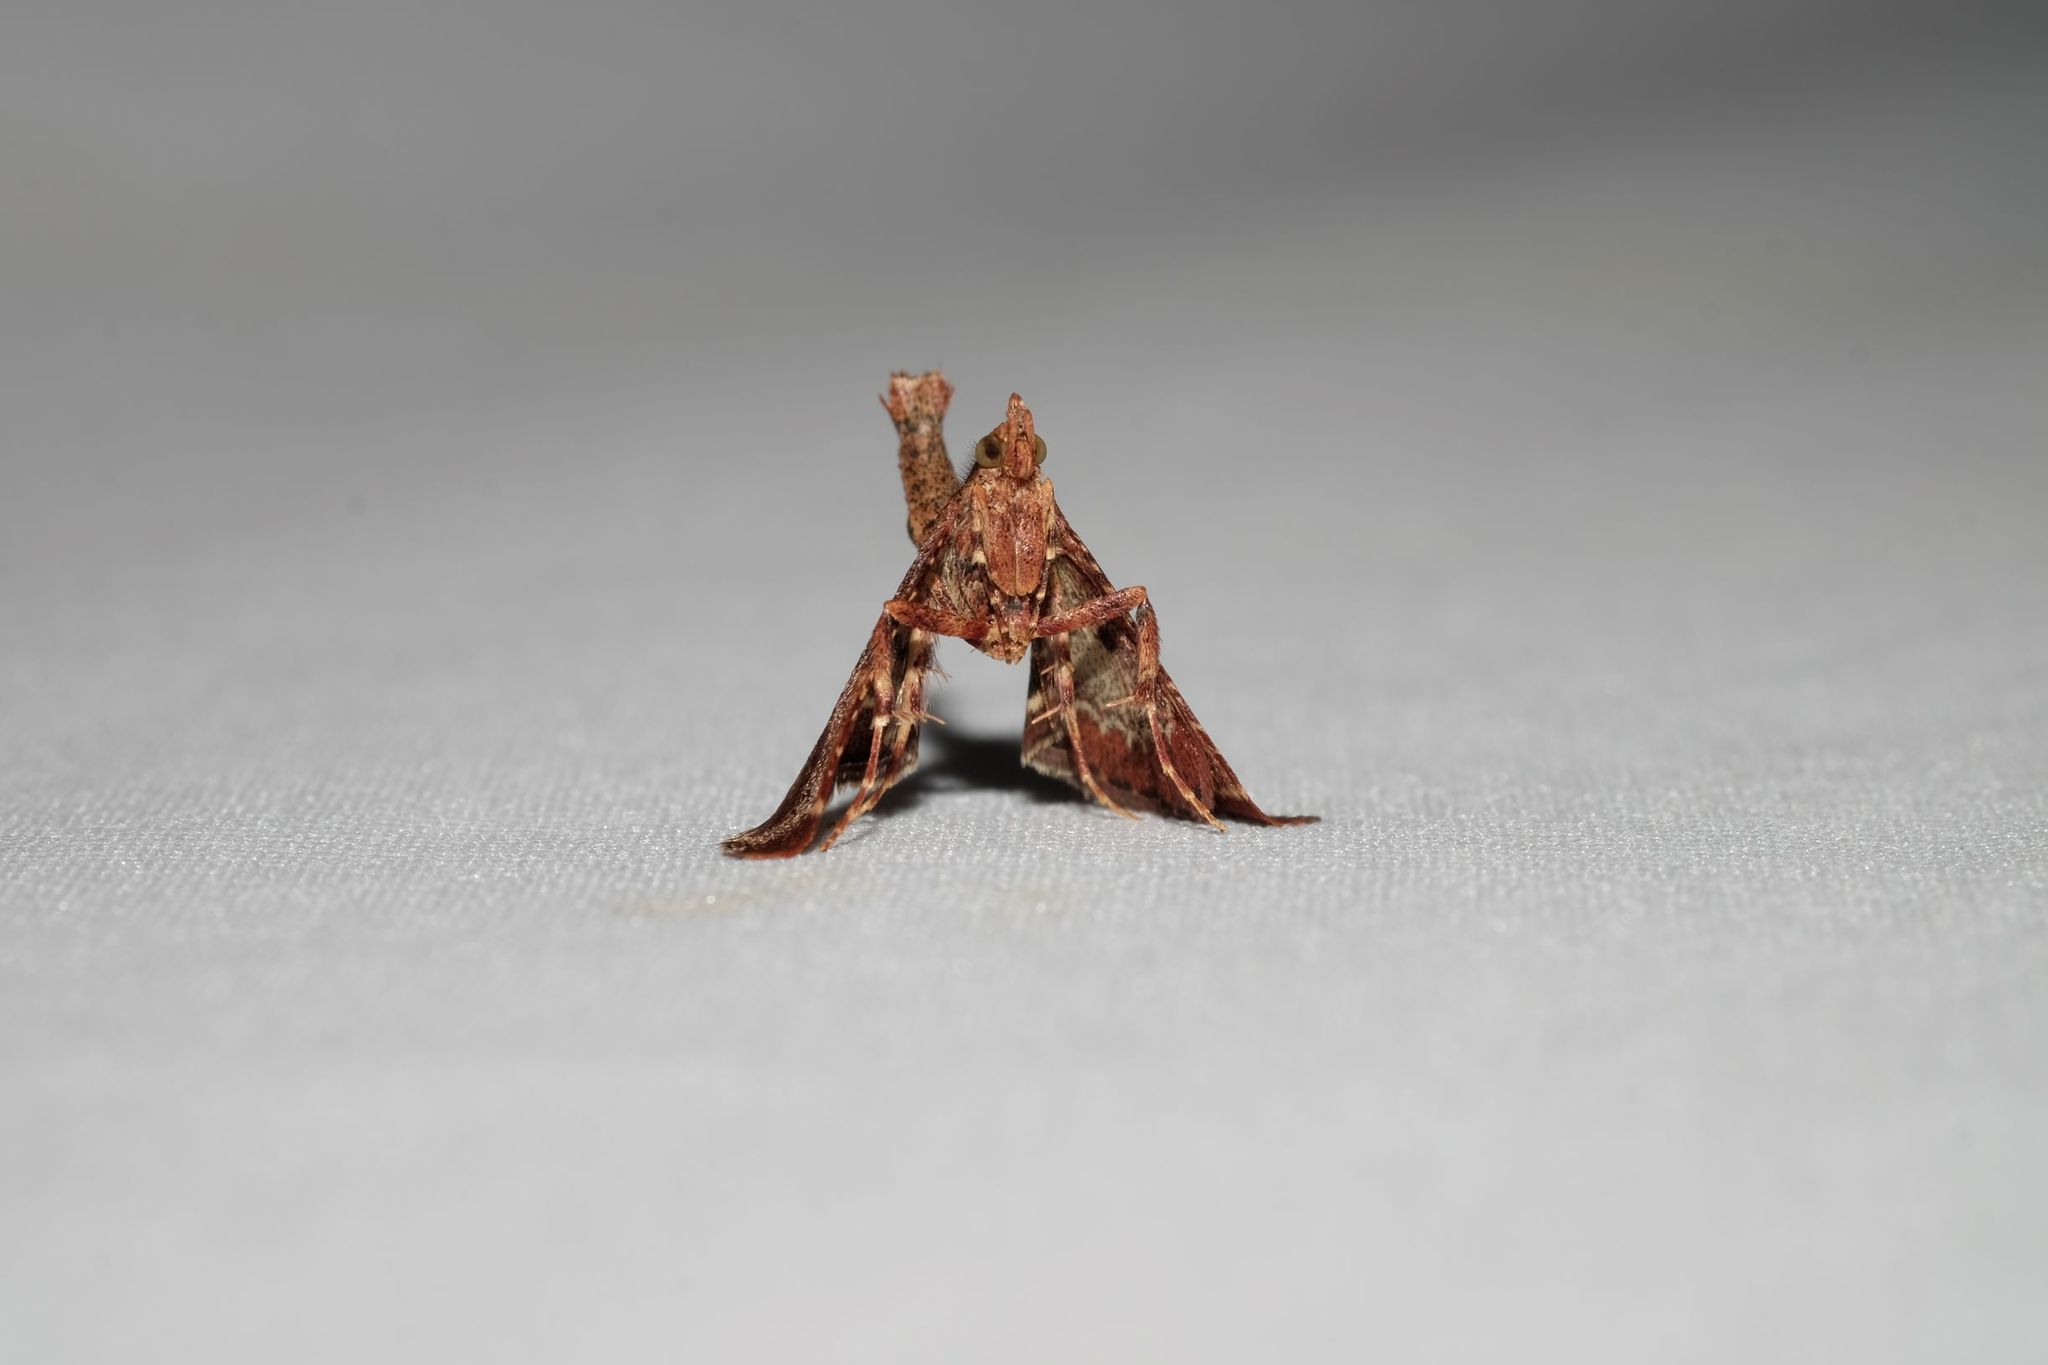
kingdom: Animalia
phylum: Arthropoda
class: Insecta
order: Lepidoptera
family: Pyralidae
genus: Gauna
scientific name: Gauna aegusalis
